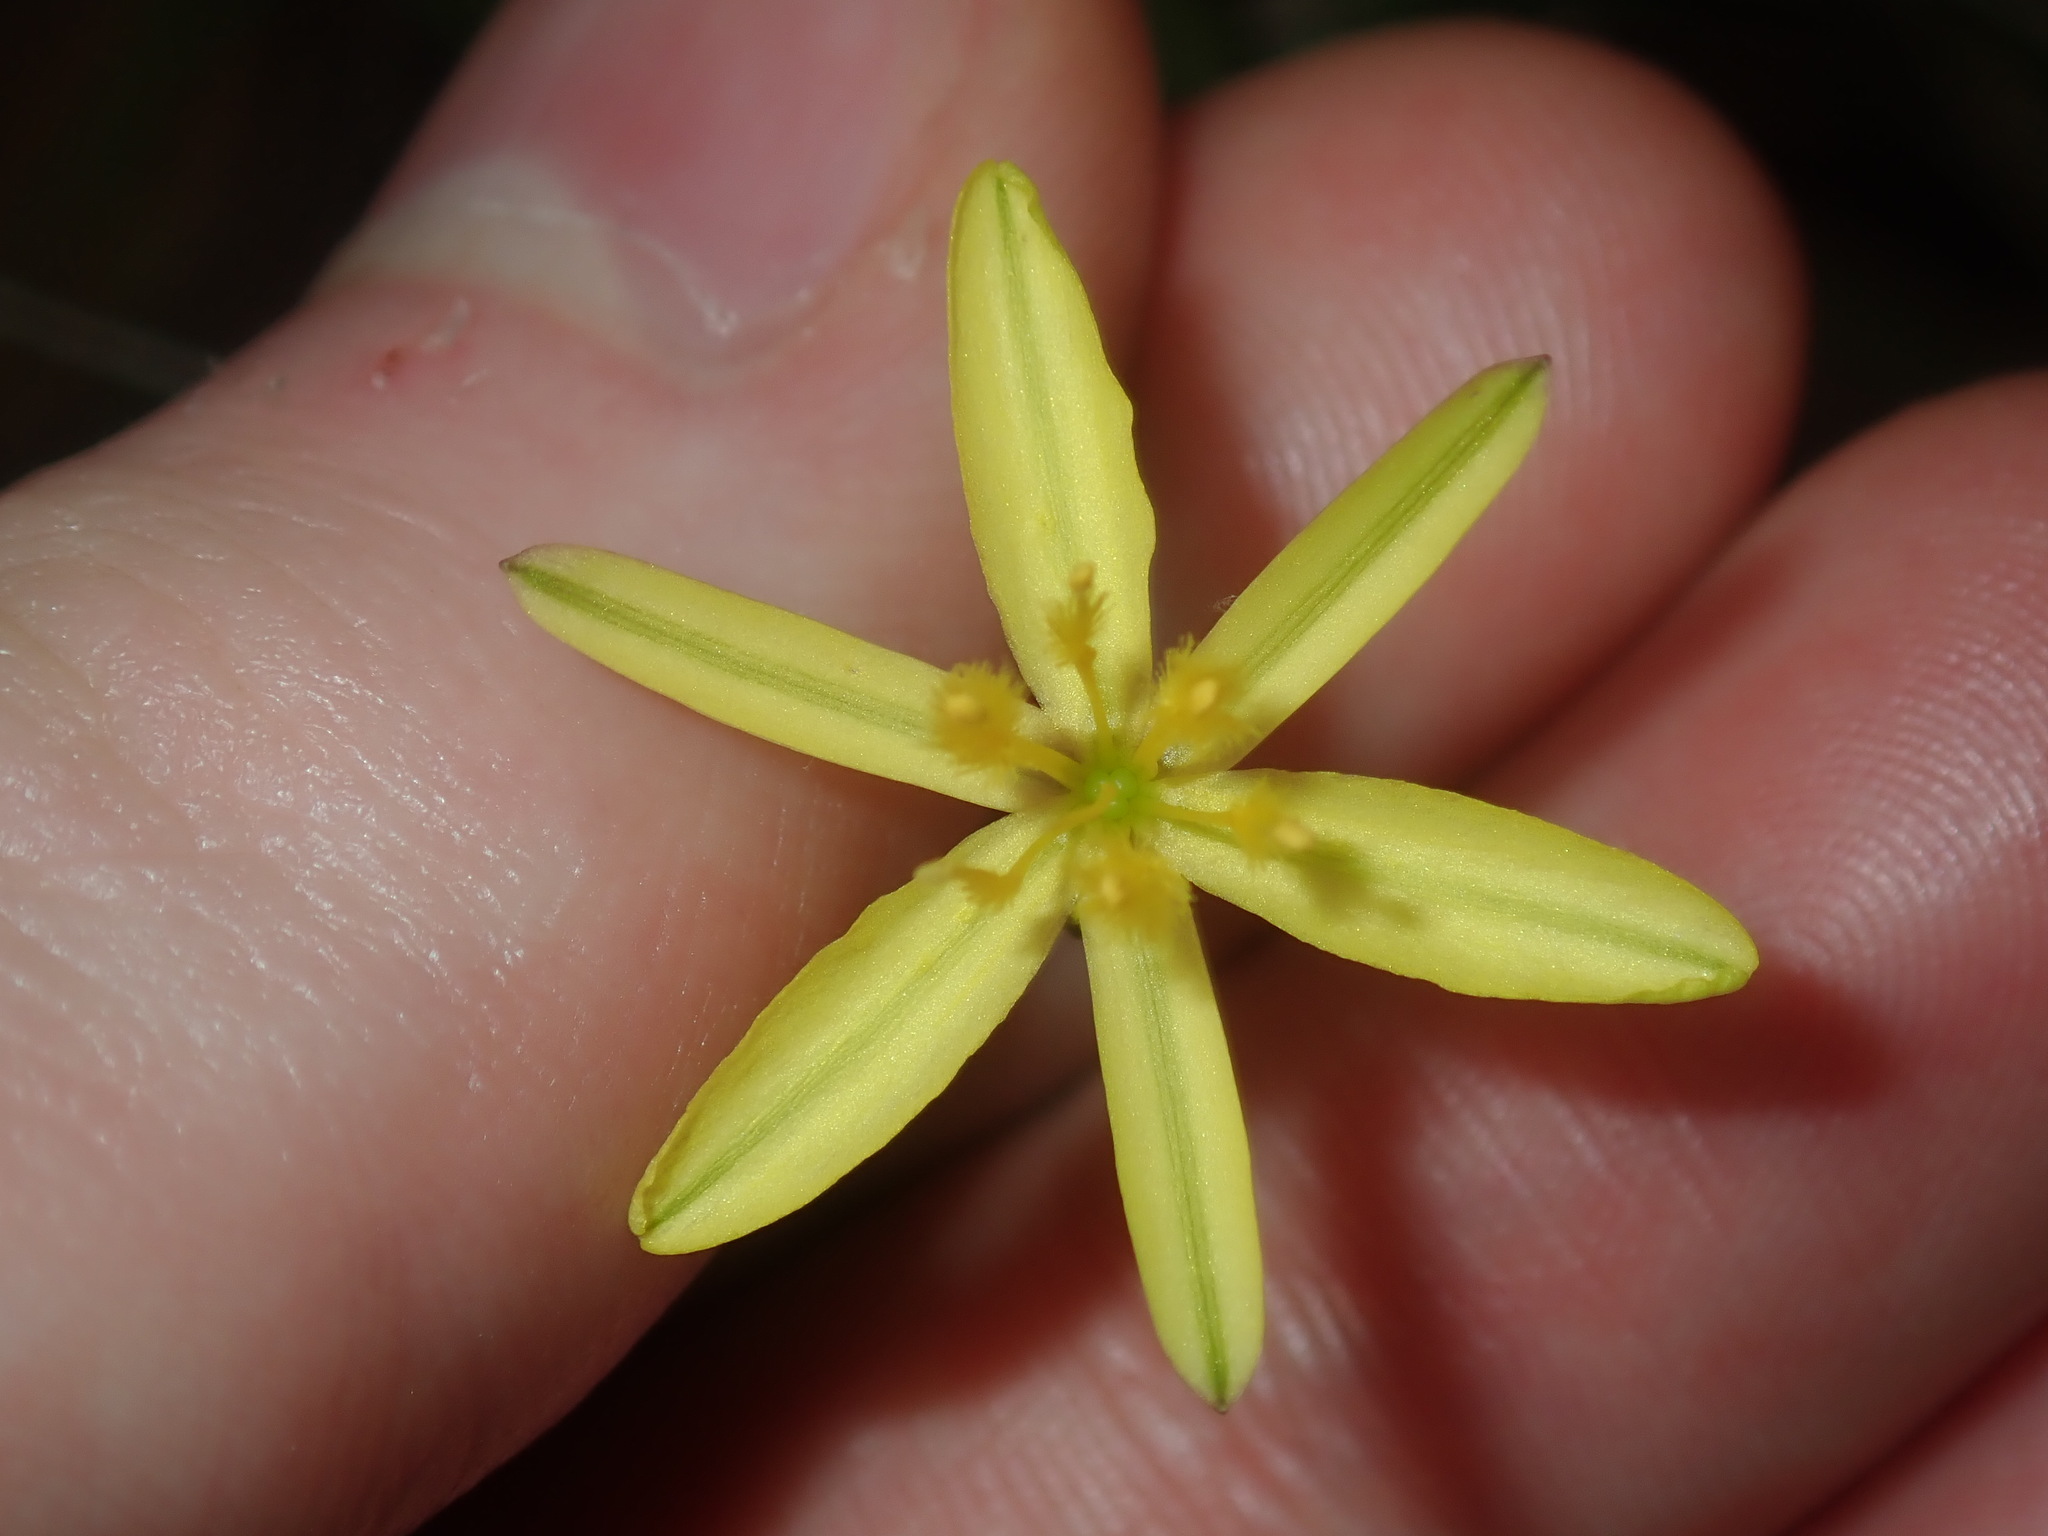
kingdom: Plantae
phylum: Tracheophyta
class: Liliopsida
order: Asparagales
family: Asphodelaceae
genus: Tricoryne
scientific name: Tricoryne elatior
